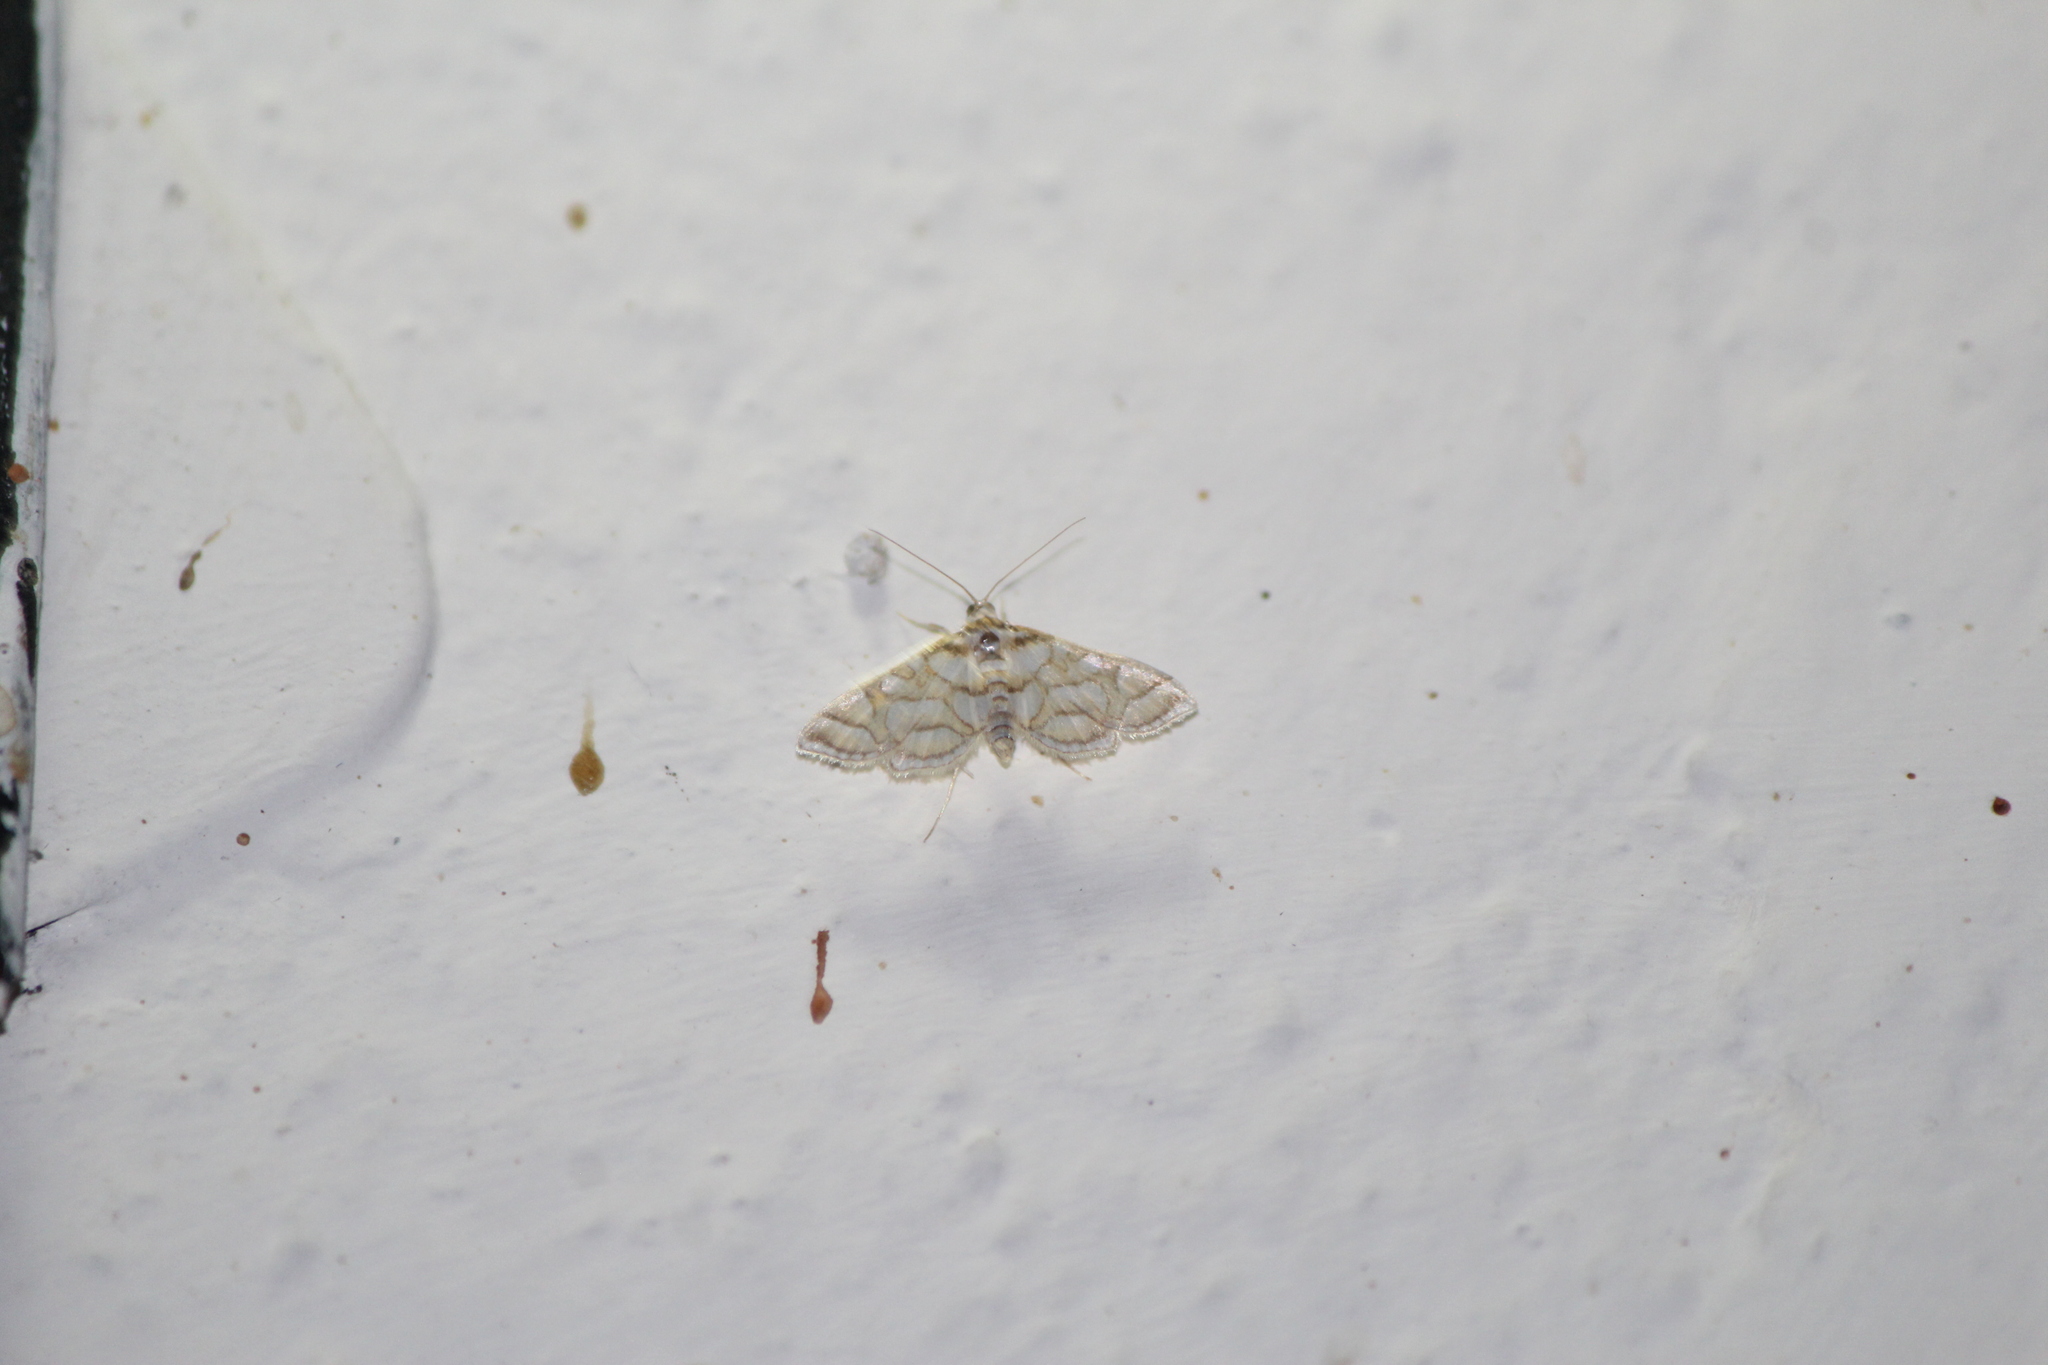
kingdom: Animalia
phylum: Arthropoda
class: Insecta
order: Lepidoptera
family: Crambidae
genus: Pseudopyrausta
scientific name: Pseudopyrausta santatalis
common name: Moth
